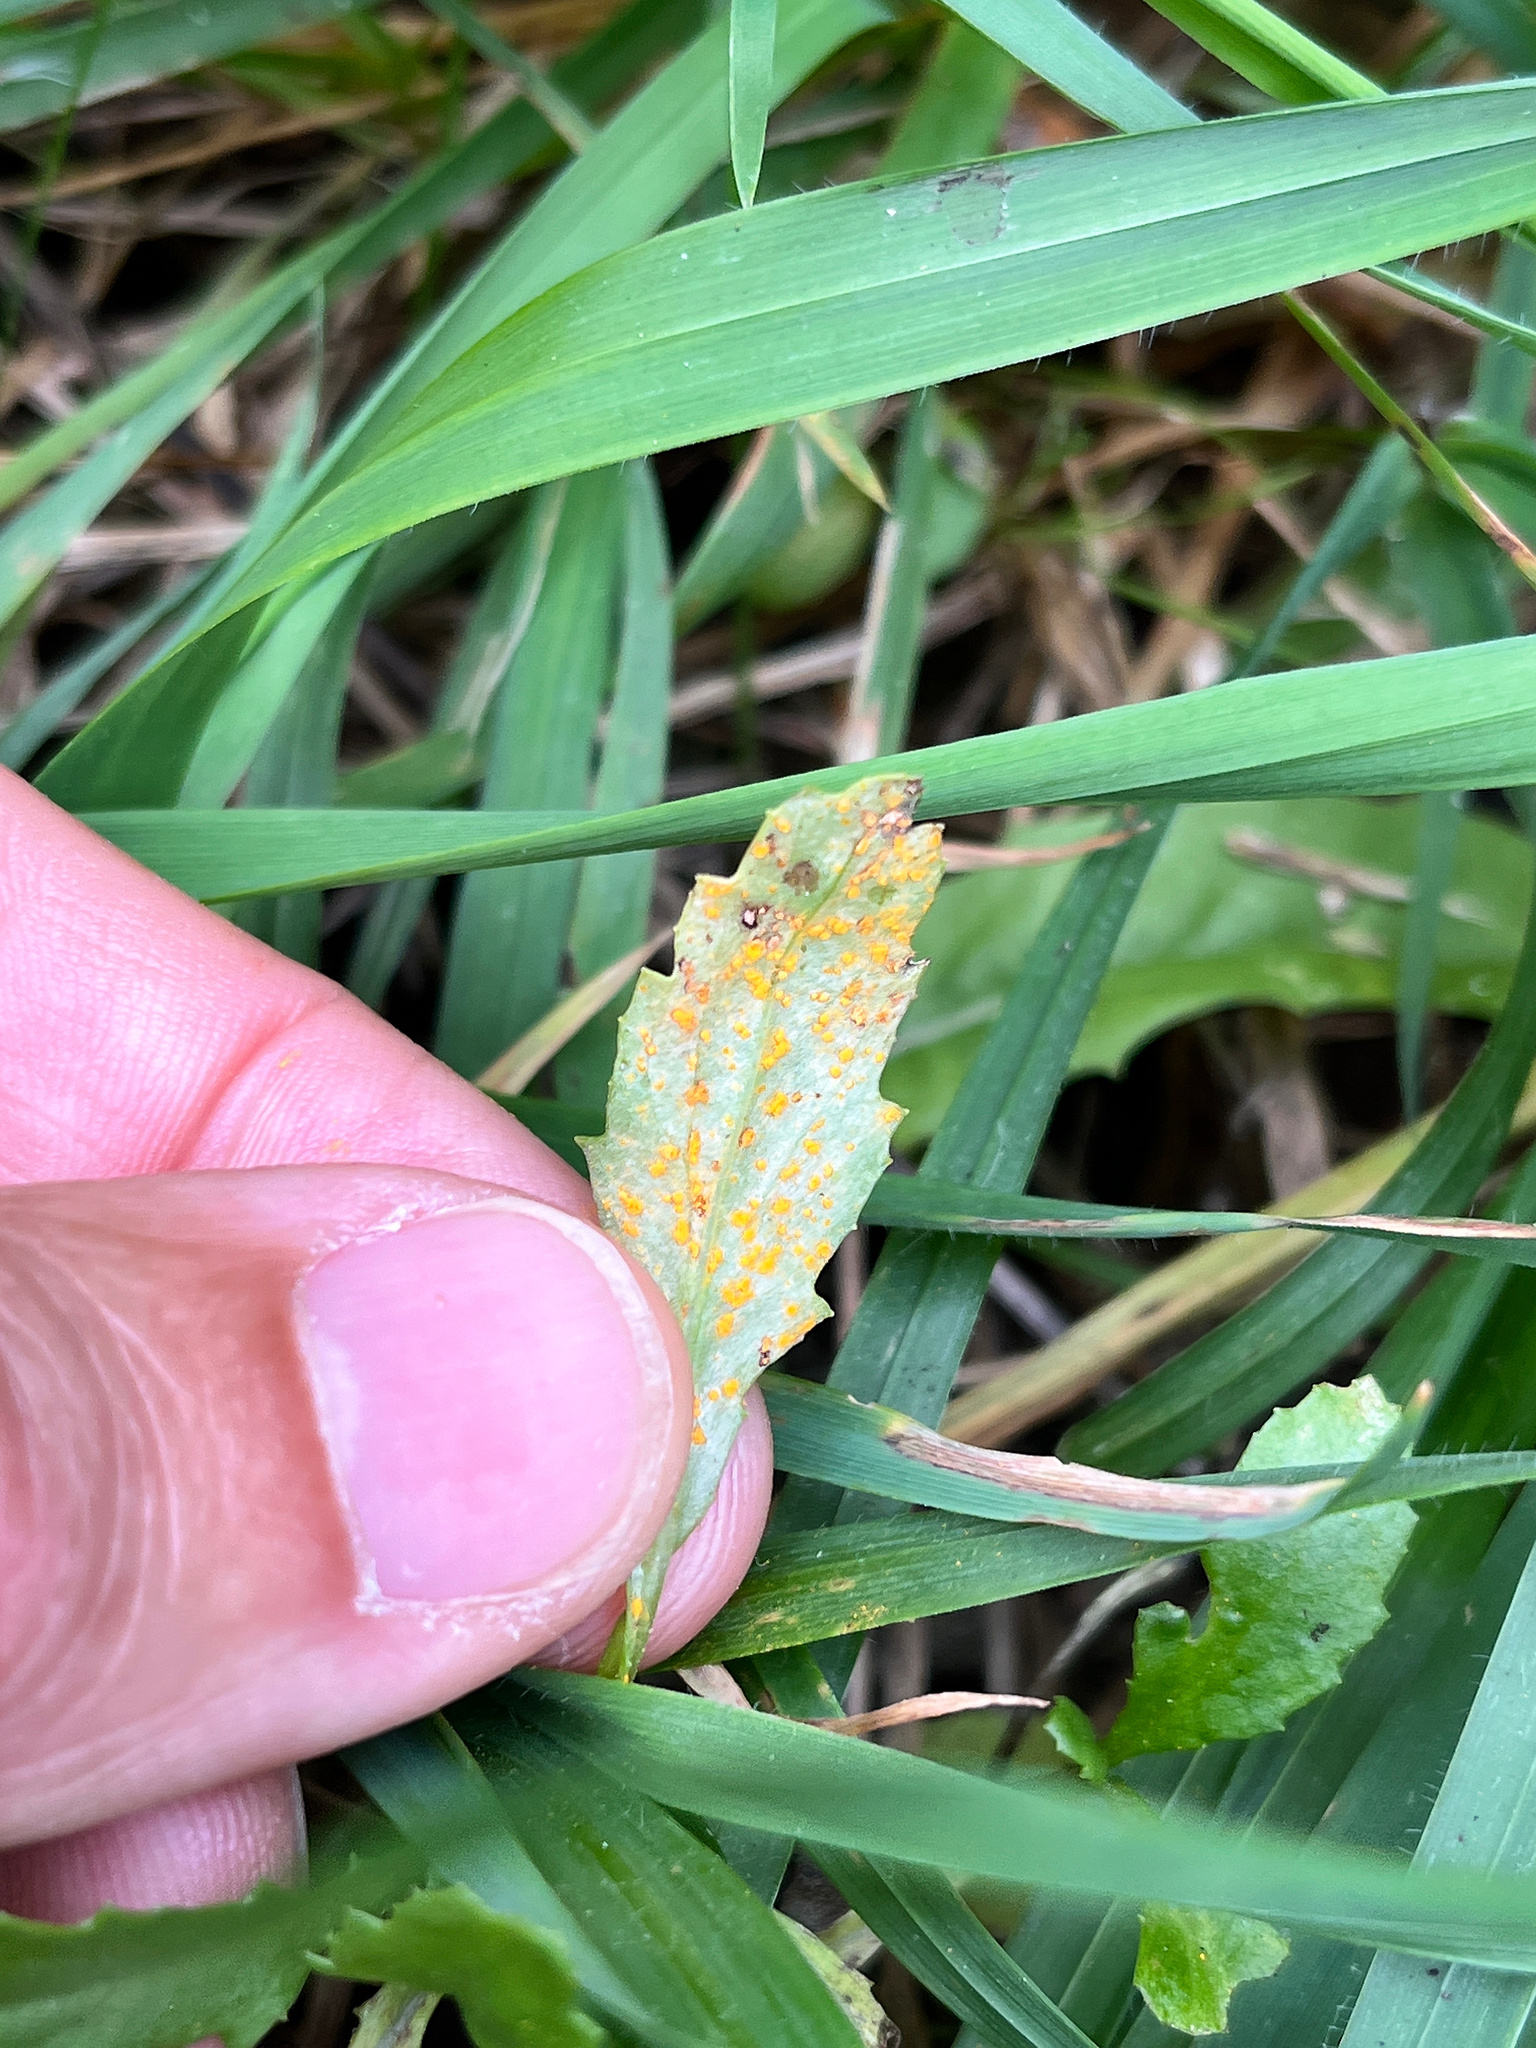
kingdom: Fungi
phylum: Basidiomycota
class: Pucciniomycetes
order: Pucciniales
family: Coleosporiaceae
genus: Coleosporium
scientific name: Coleosporium tussilaginis
